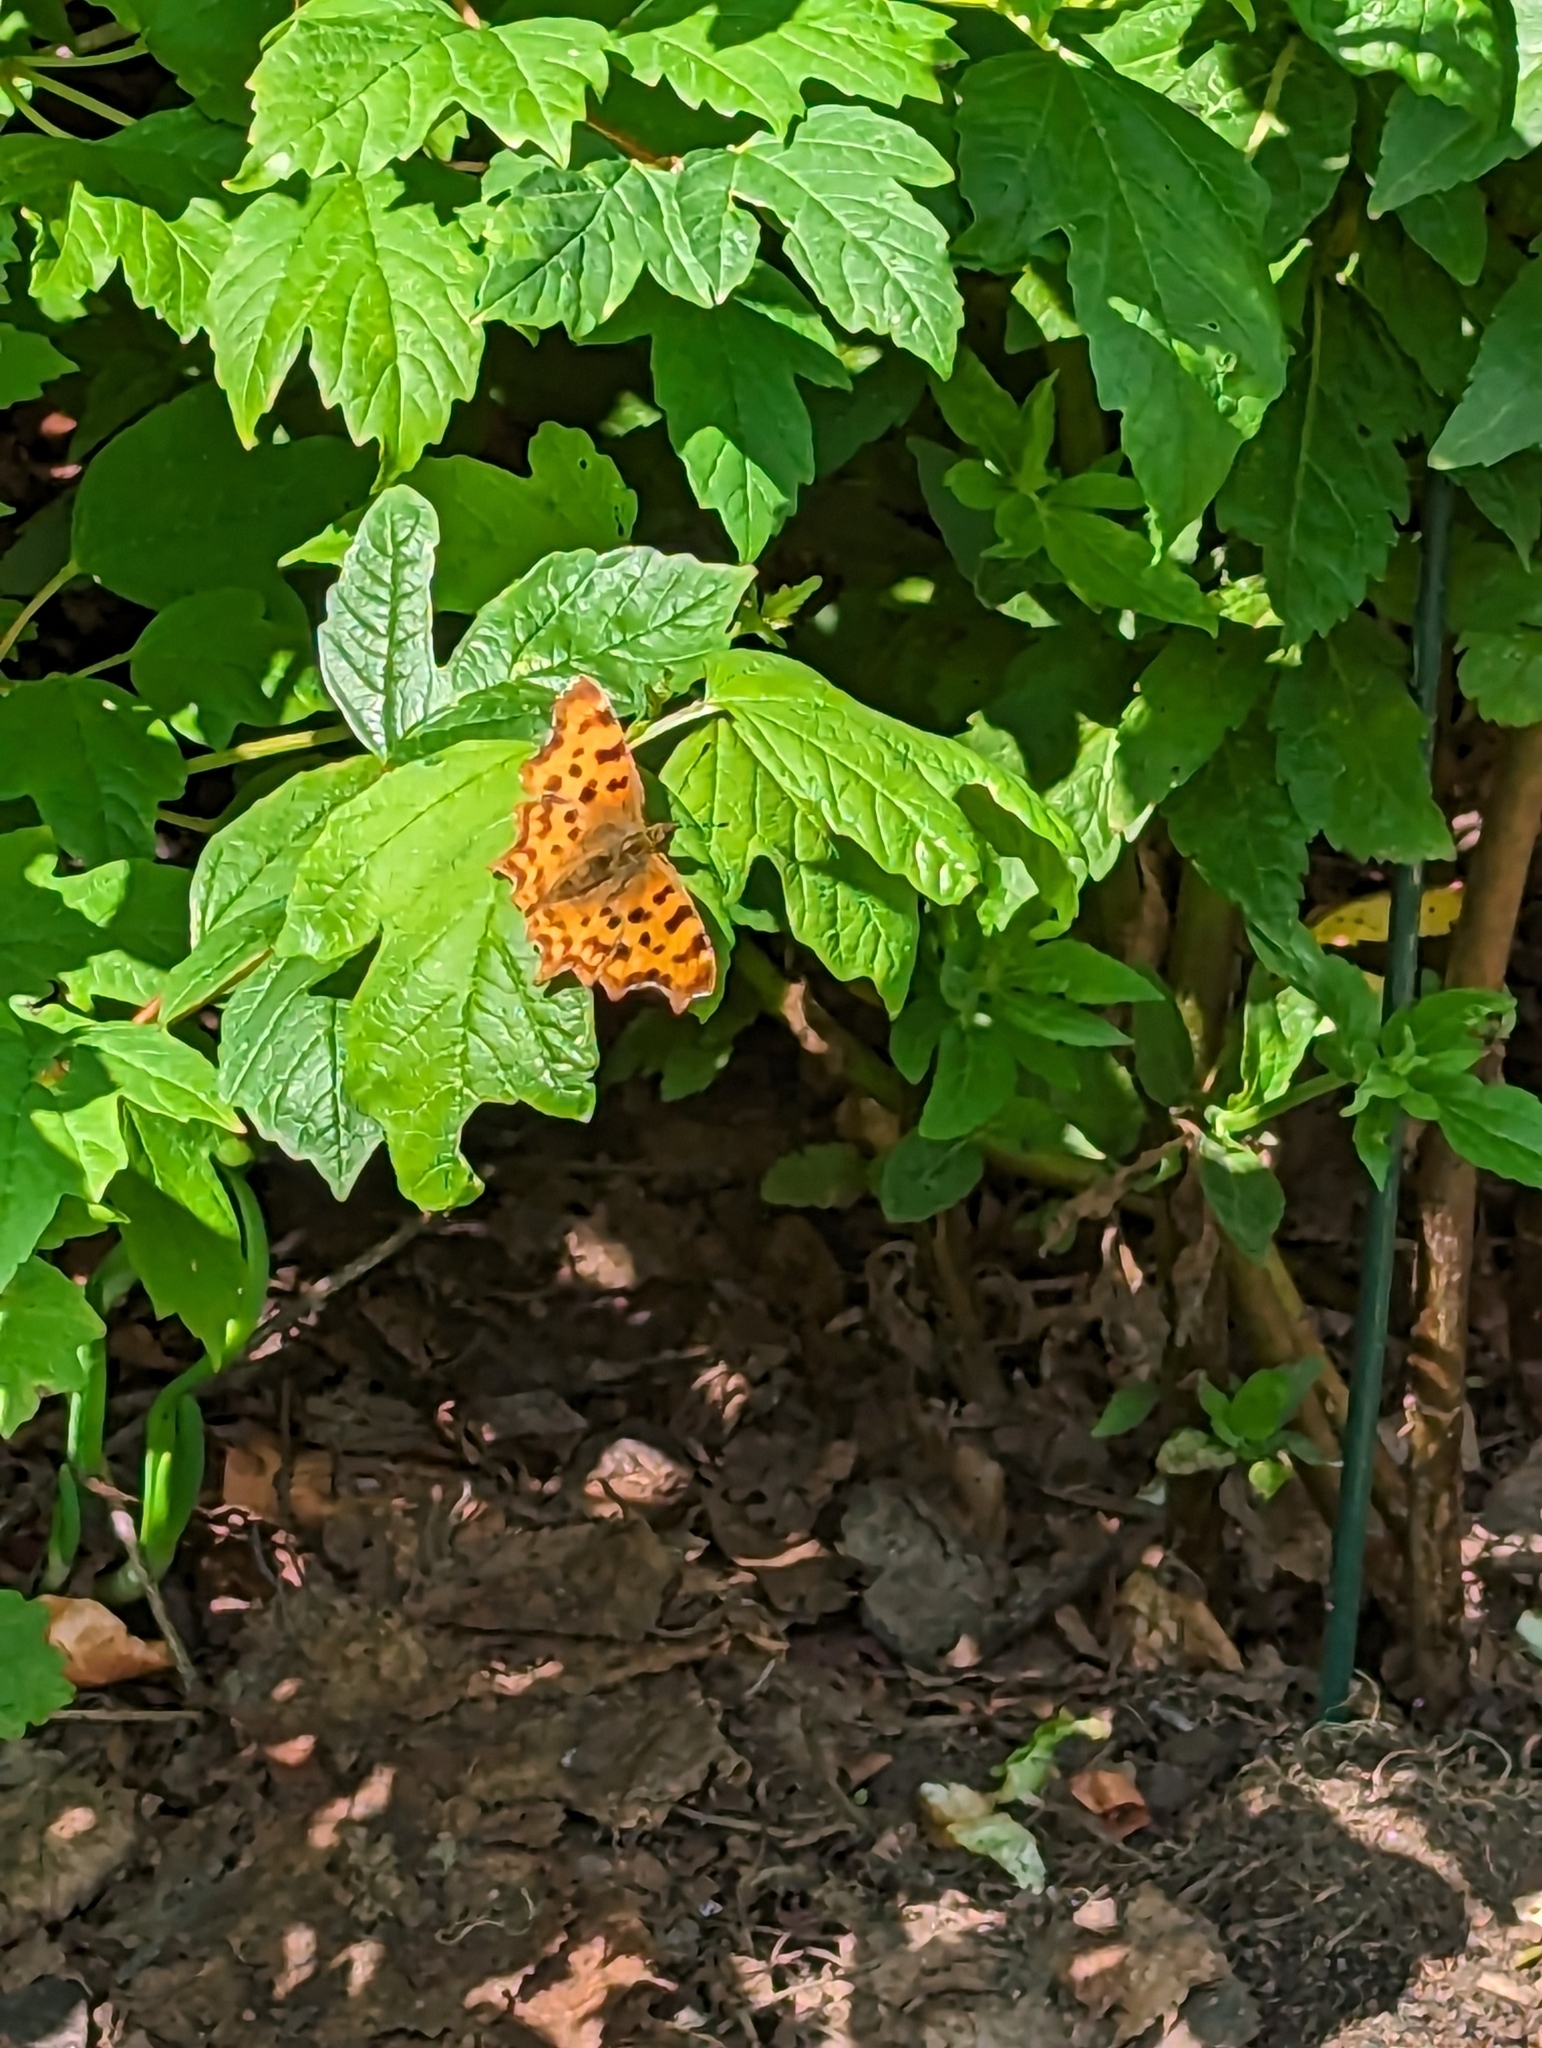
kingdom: Animalia
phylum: Arthropoda
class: Insecta
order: Lepidoptera
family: Nymphalidae
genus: Polygonia
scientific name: Polygonia c-album
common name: Comma
